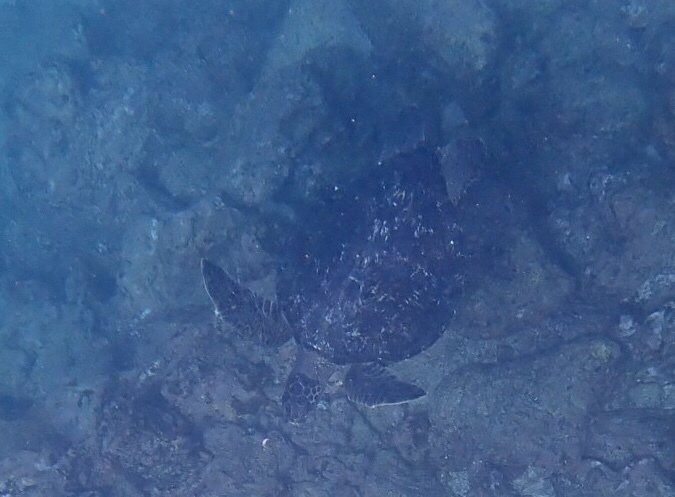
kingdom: Animalia
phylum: Chordata
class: Testudines
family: Cheloniidae
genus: Chelonia
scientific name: Chelonia mydas
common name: Green turtle
